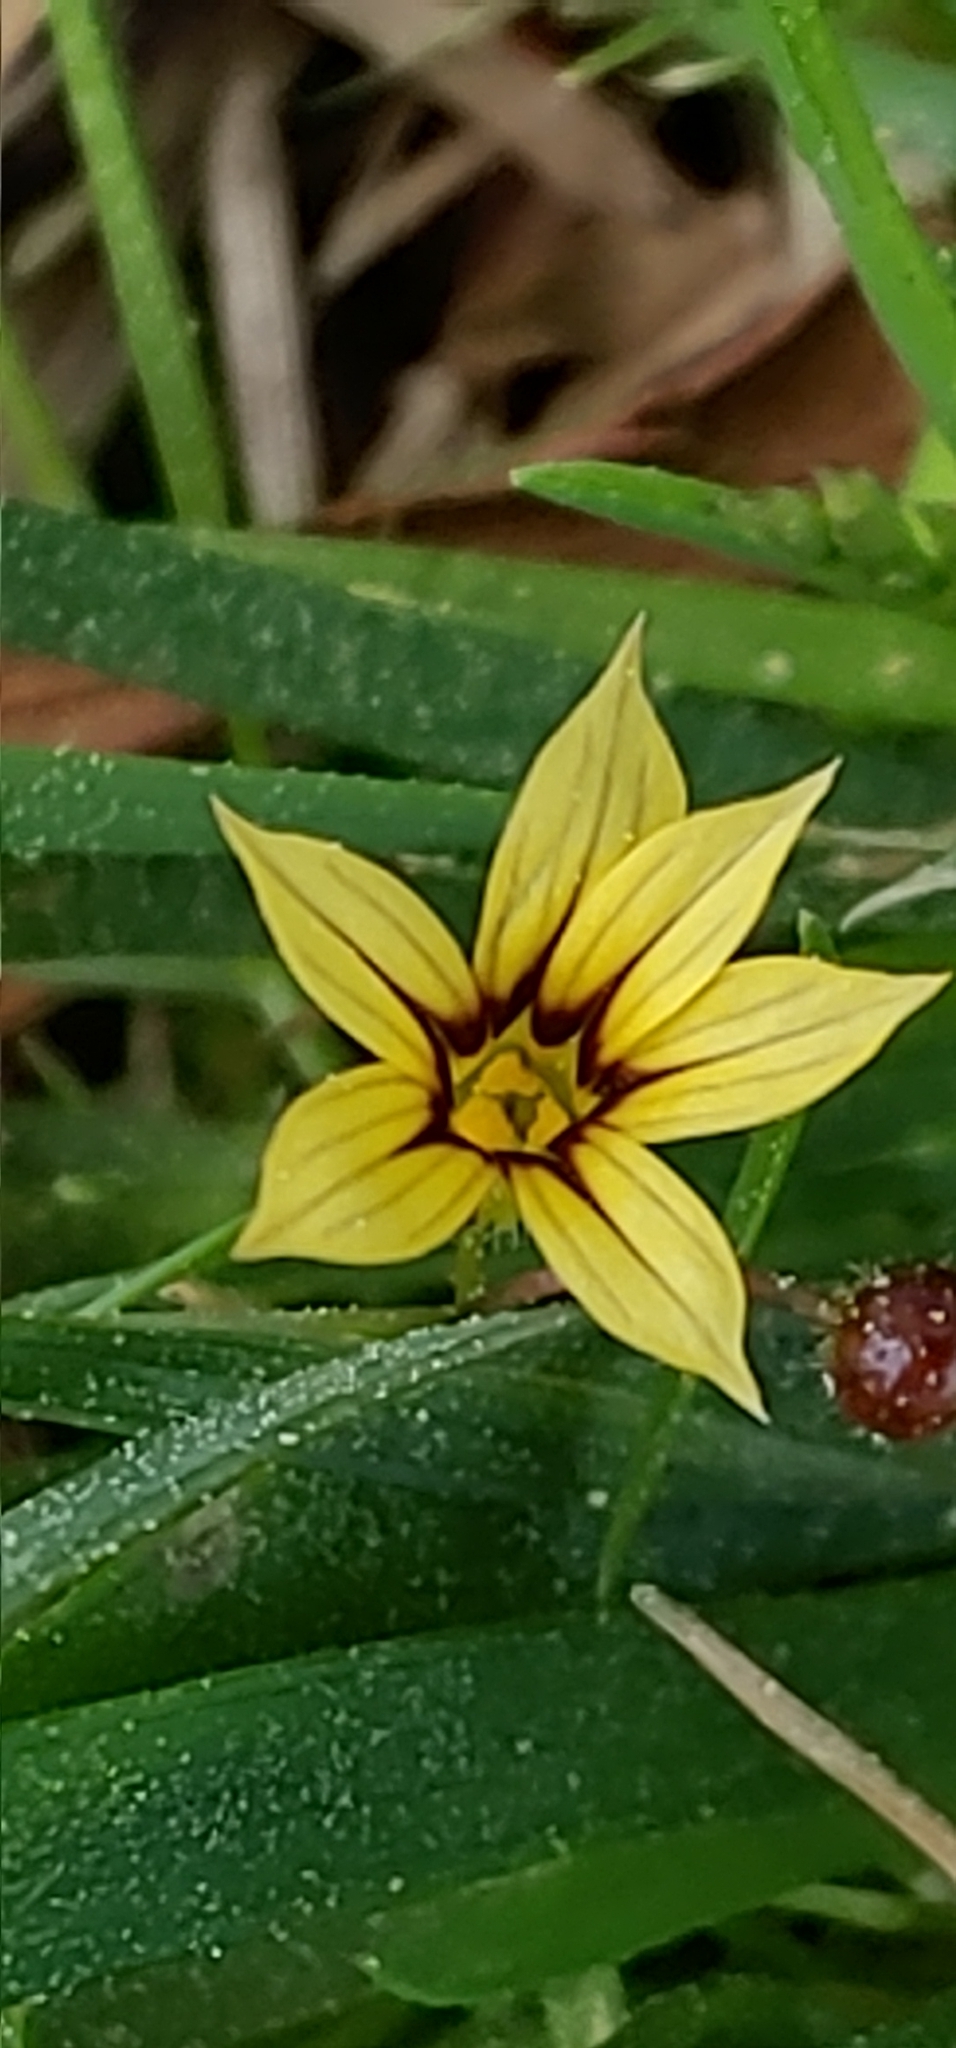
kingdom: Plantae
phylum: Tracheophyta
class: Liliopsida
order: Asparagales
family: Iridaceae
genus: Sisyrinchium
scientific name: Sisyrinchium micranthum
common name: Bermuda pigroot
